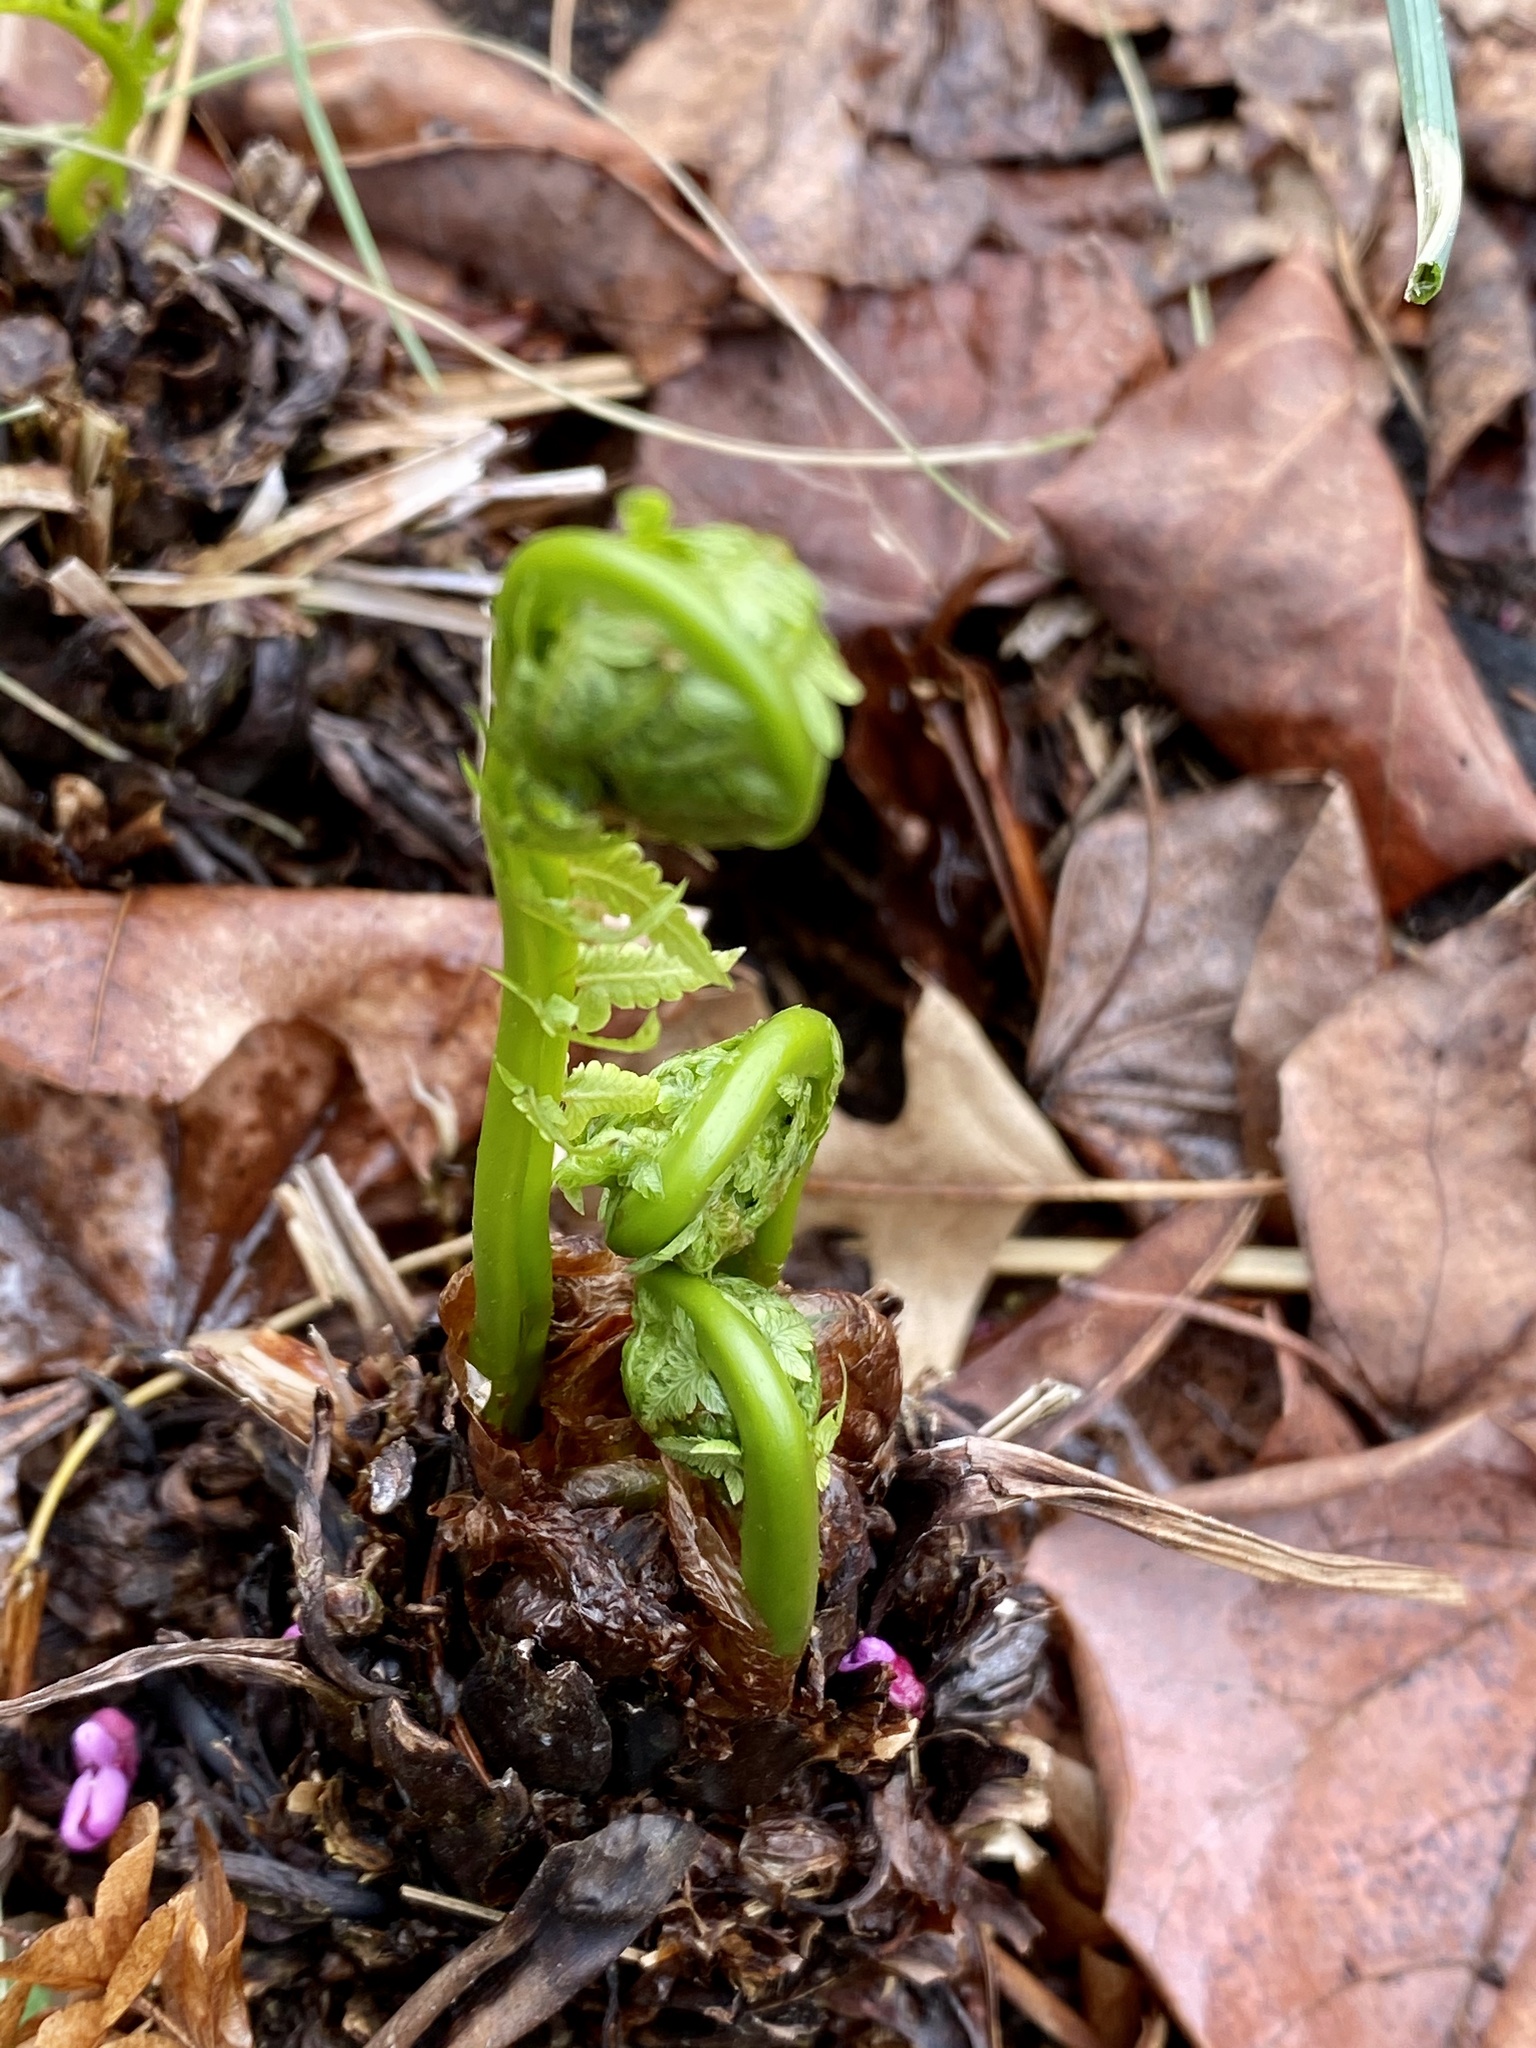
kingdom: Plantae
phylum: Tracheophyta
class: Polypodiopsida
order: Polypodiales
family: Onocleaceae
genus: Matteuccia
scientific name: Matteuccia struthiopteris
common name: Ostrich fern
